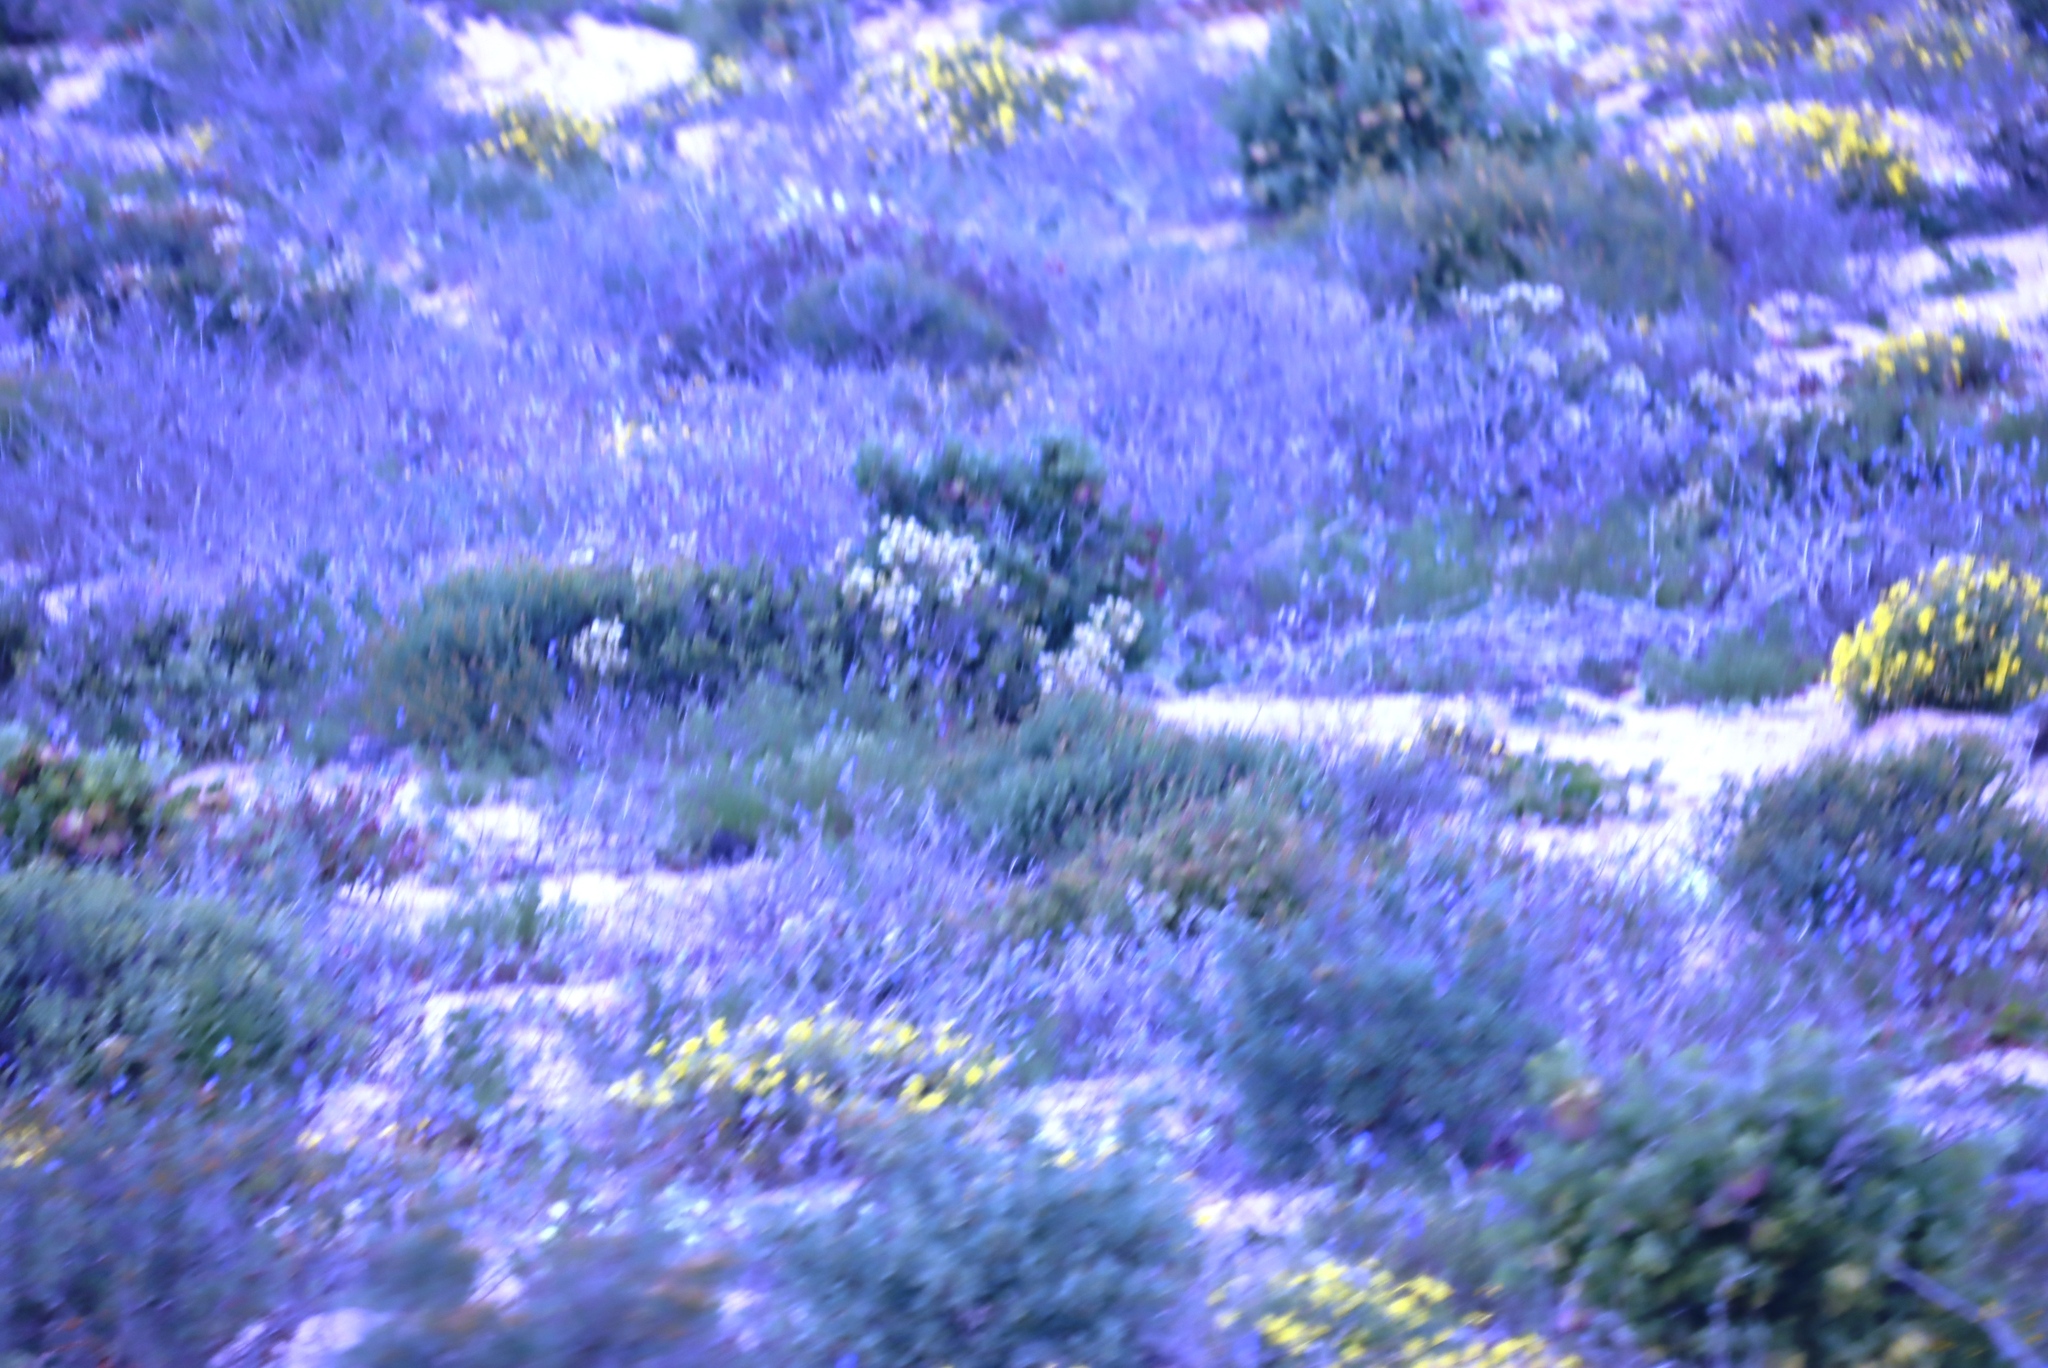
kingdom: Plantae
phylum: Tracheophyta
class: Magnoliopsida
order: Brassicales
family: Brassicaceae
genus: Heliophila
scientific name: Heliophila lactea
